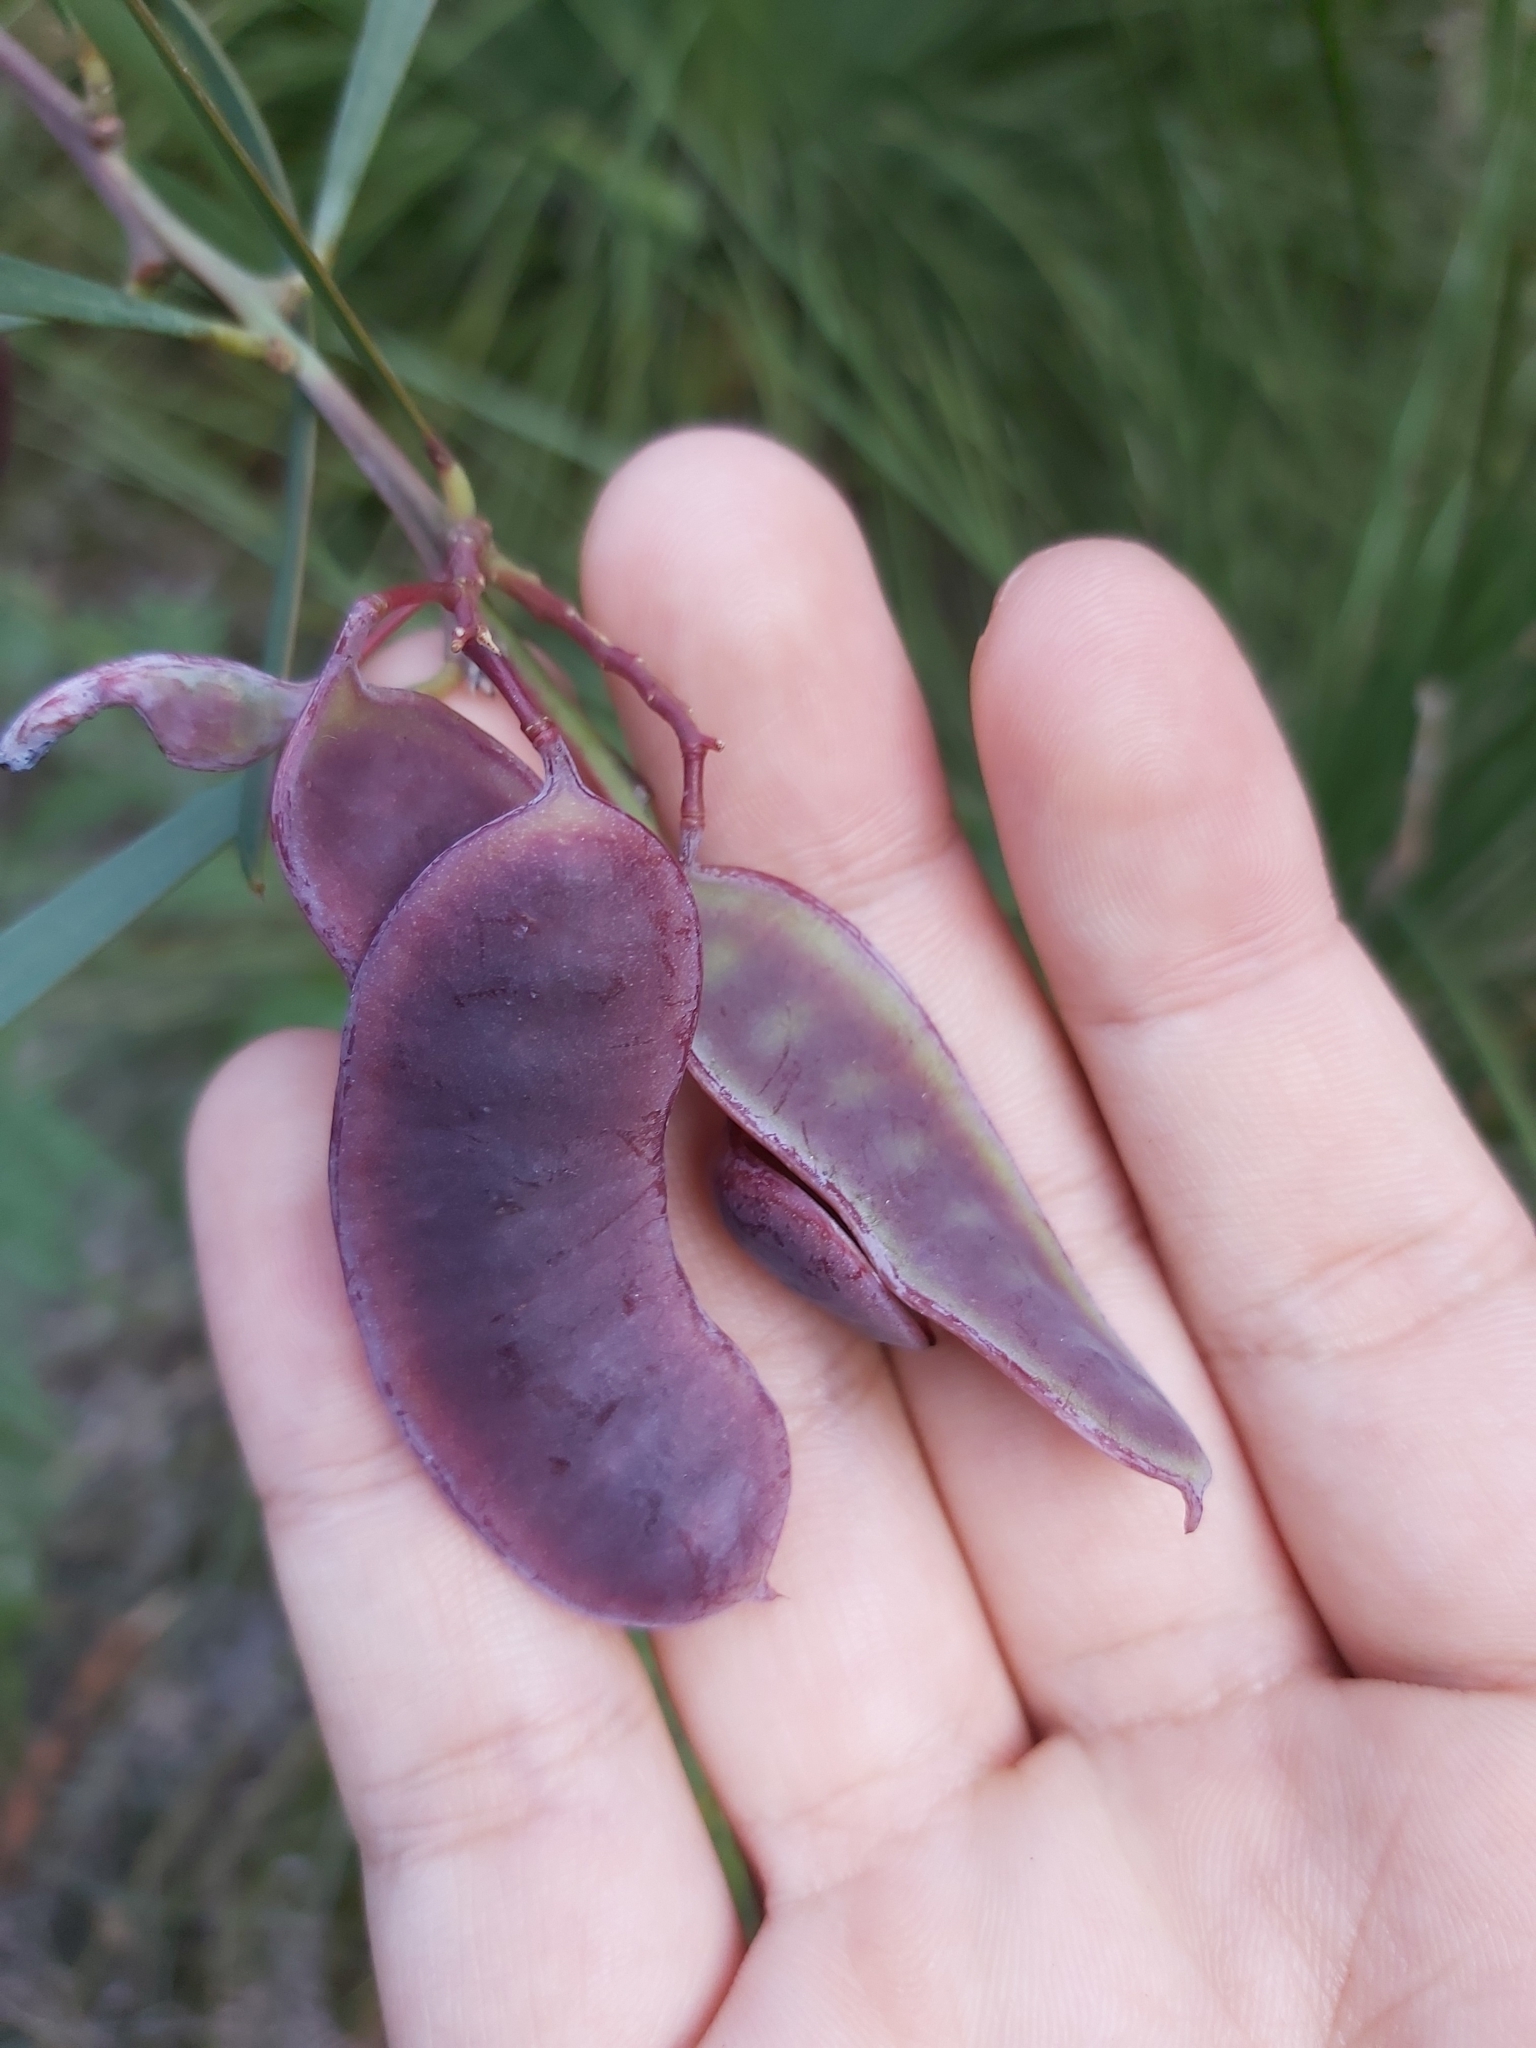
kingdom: Plantae
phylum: Tracheophyta
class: Magnoliopsida
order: Fabales
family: Fabaceae
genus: Acacia
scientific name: Acacia suaveolens
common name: Sweet acacia
